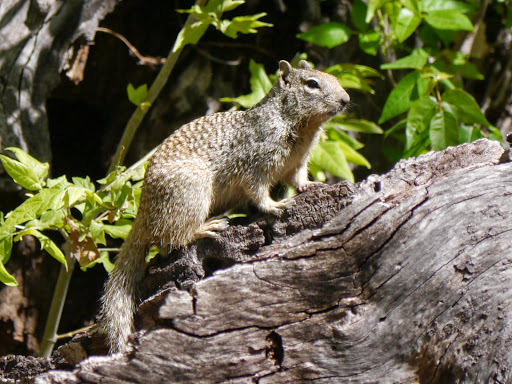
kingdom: Animalia
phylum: Chordata
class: Mammalia
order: Rodentia
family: Sciuridae
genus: Otospermophilus
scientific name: Otospermophilus variegatus
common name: Rock squirrel
